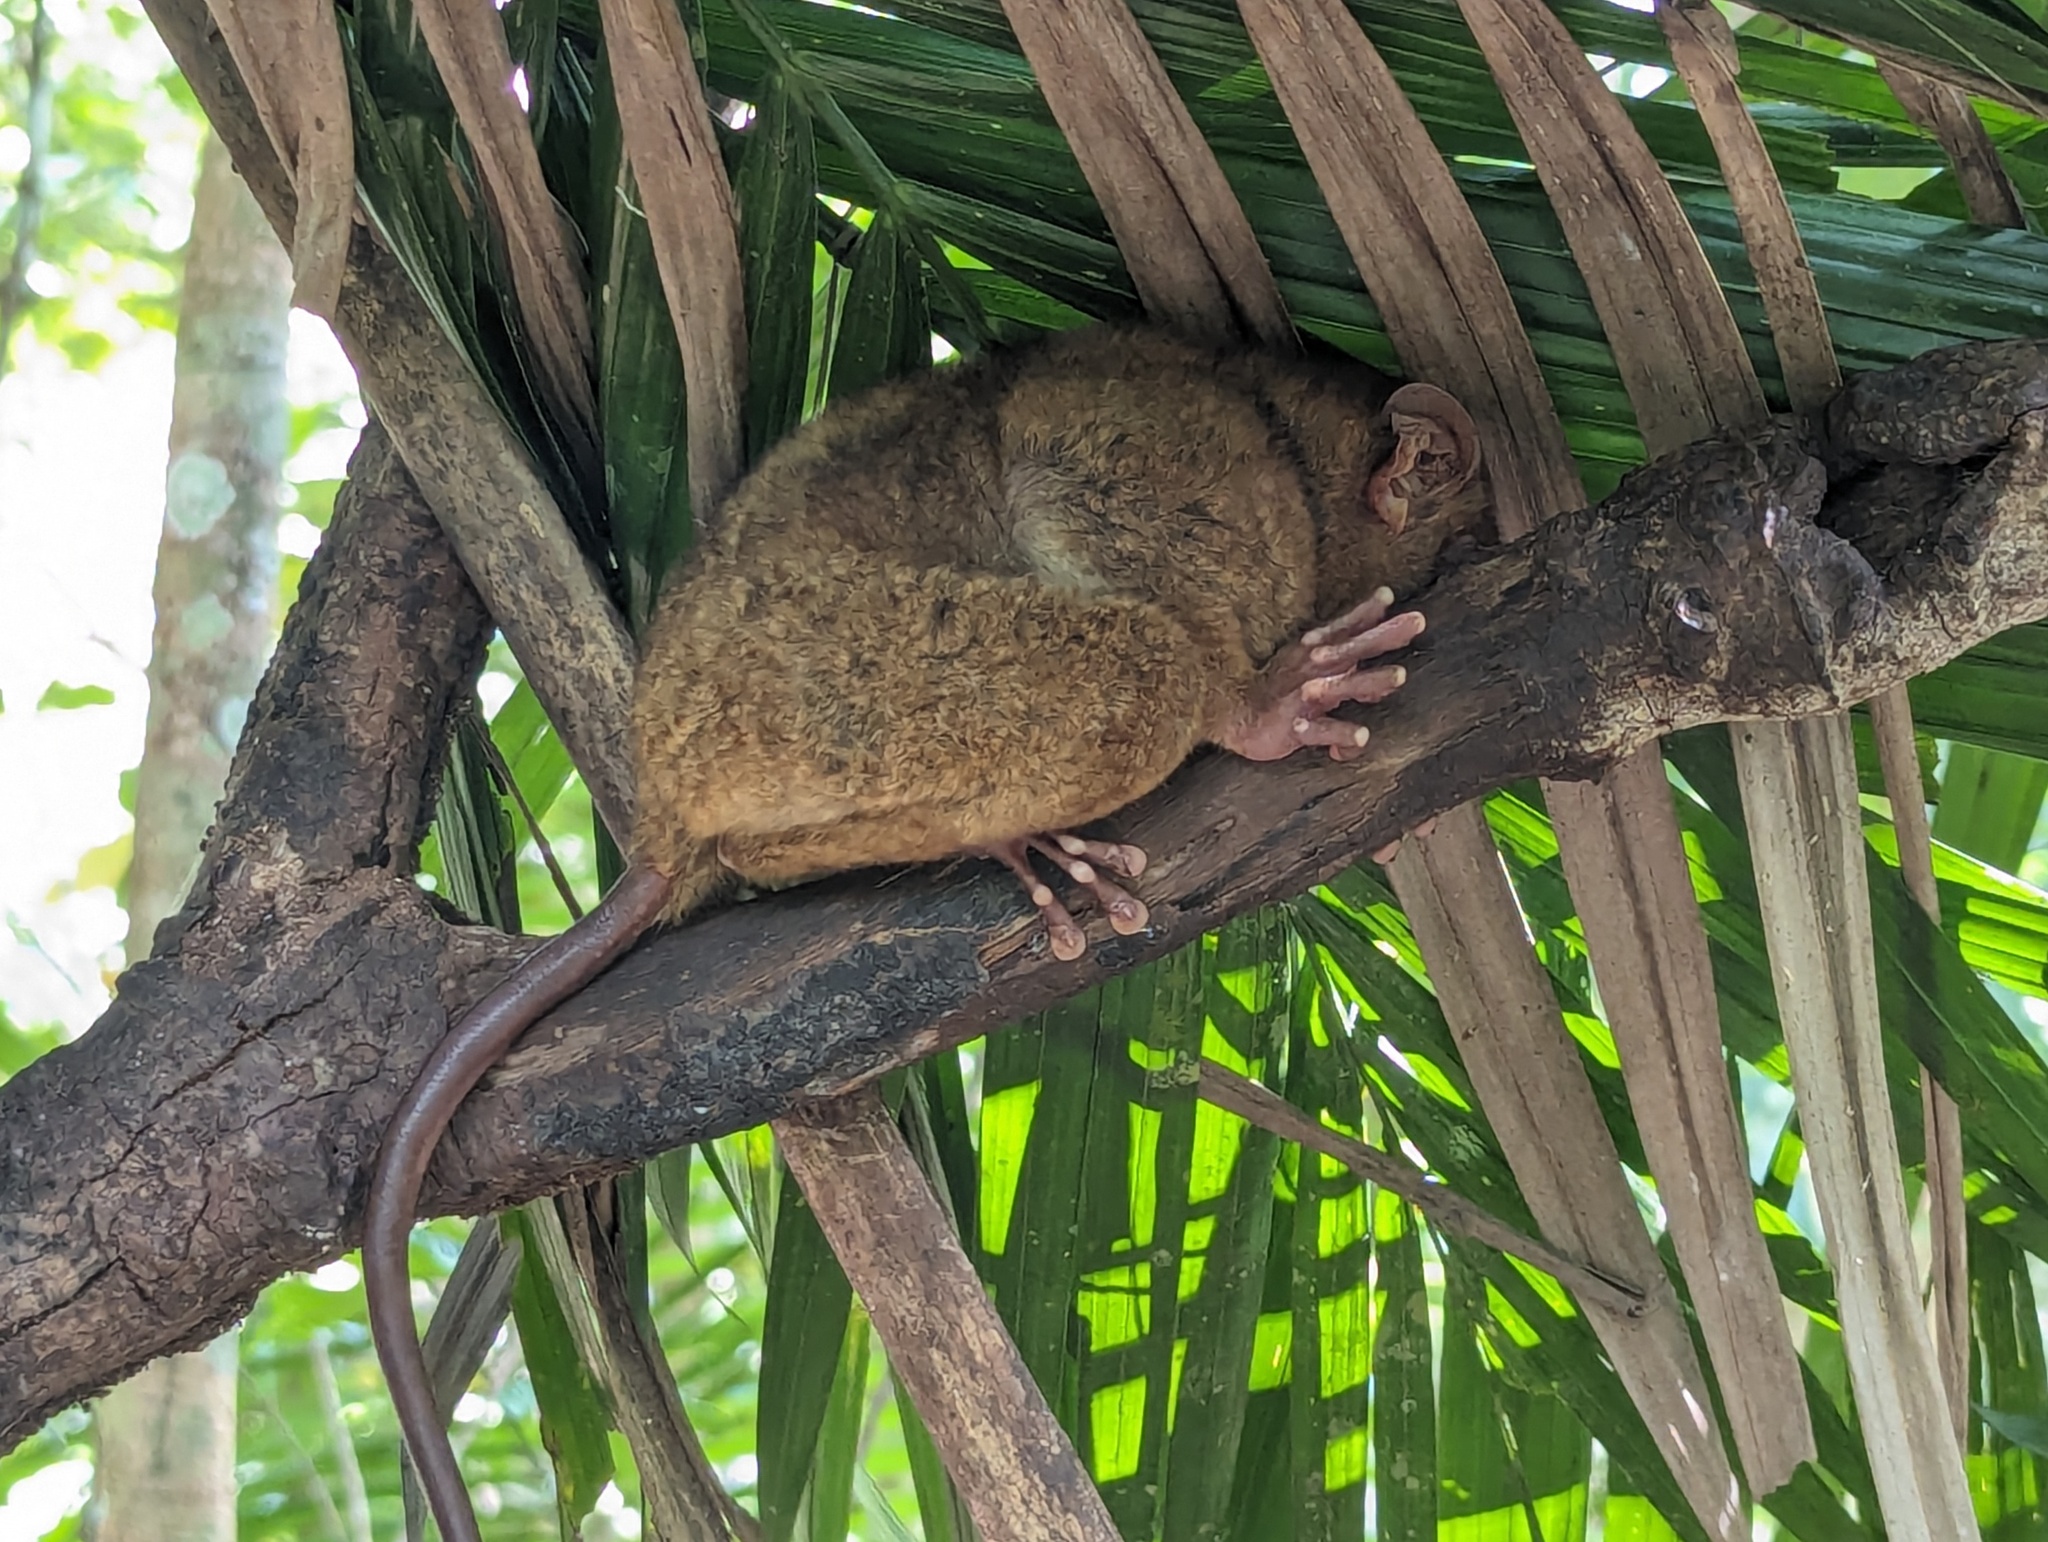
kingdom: Animalia
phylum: Chordata
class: Mammalia
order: Primates
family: Tarsiidae
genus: Carlito
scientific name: Carlito syrichta
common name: Philippine tarsier
